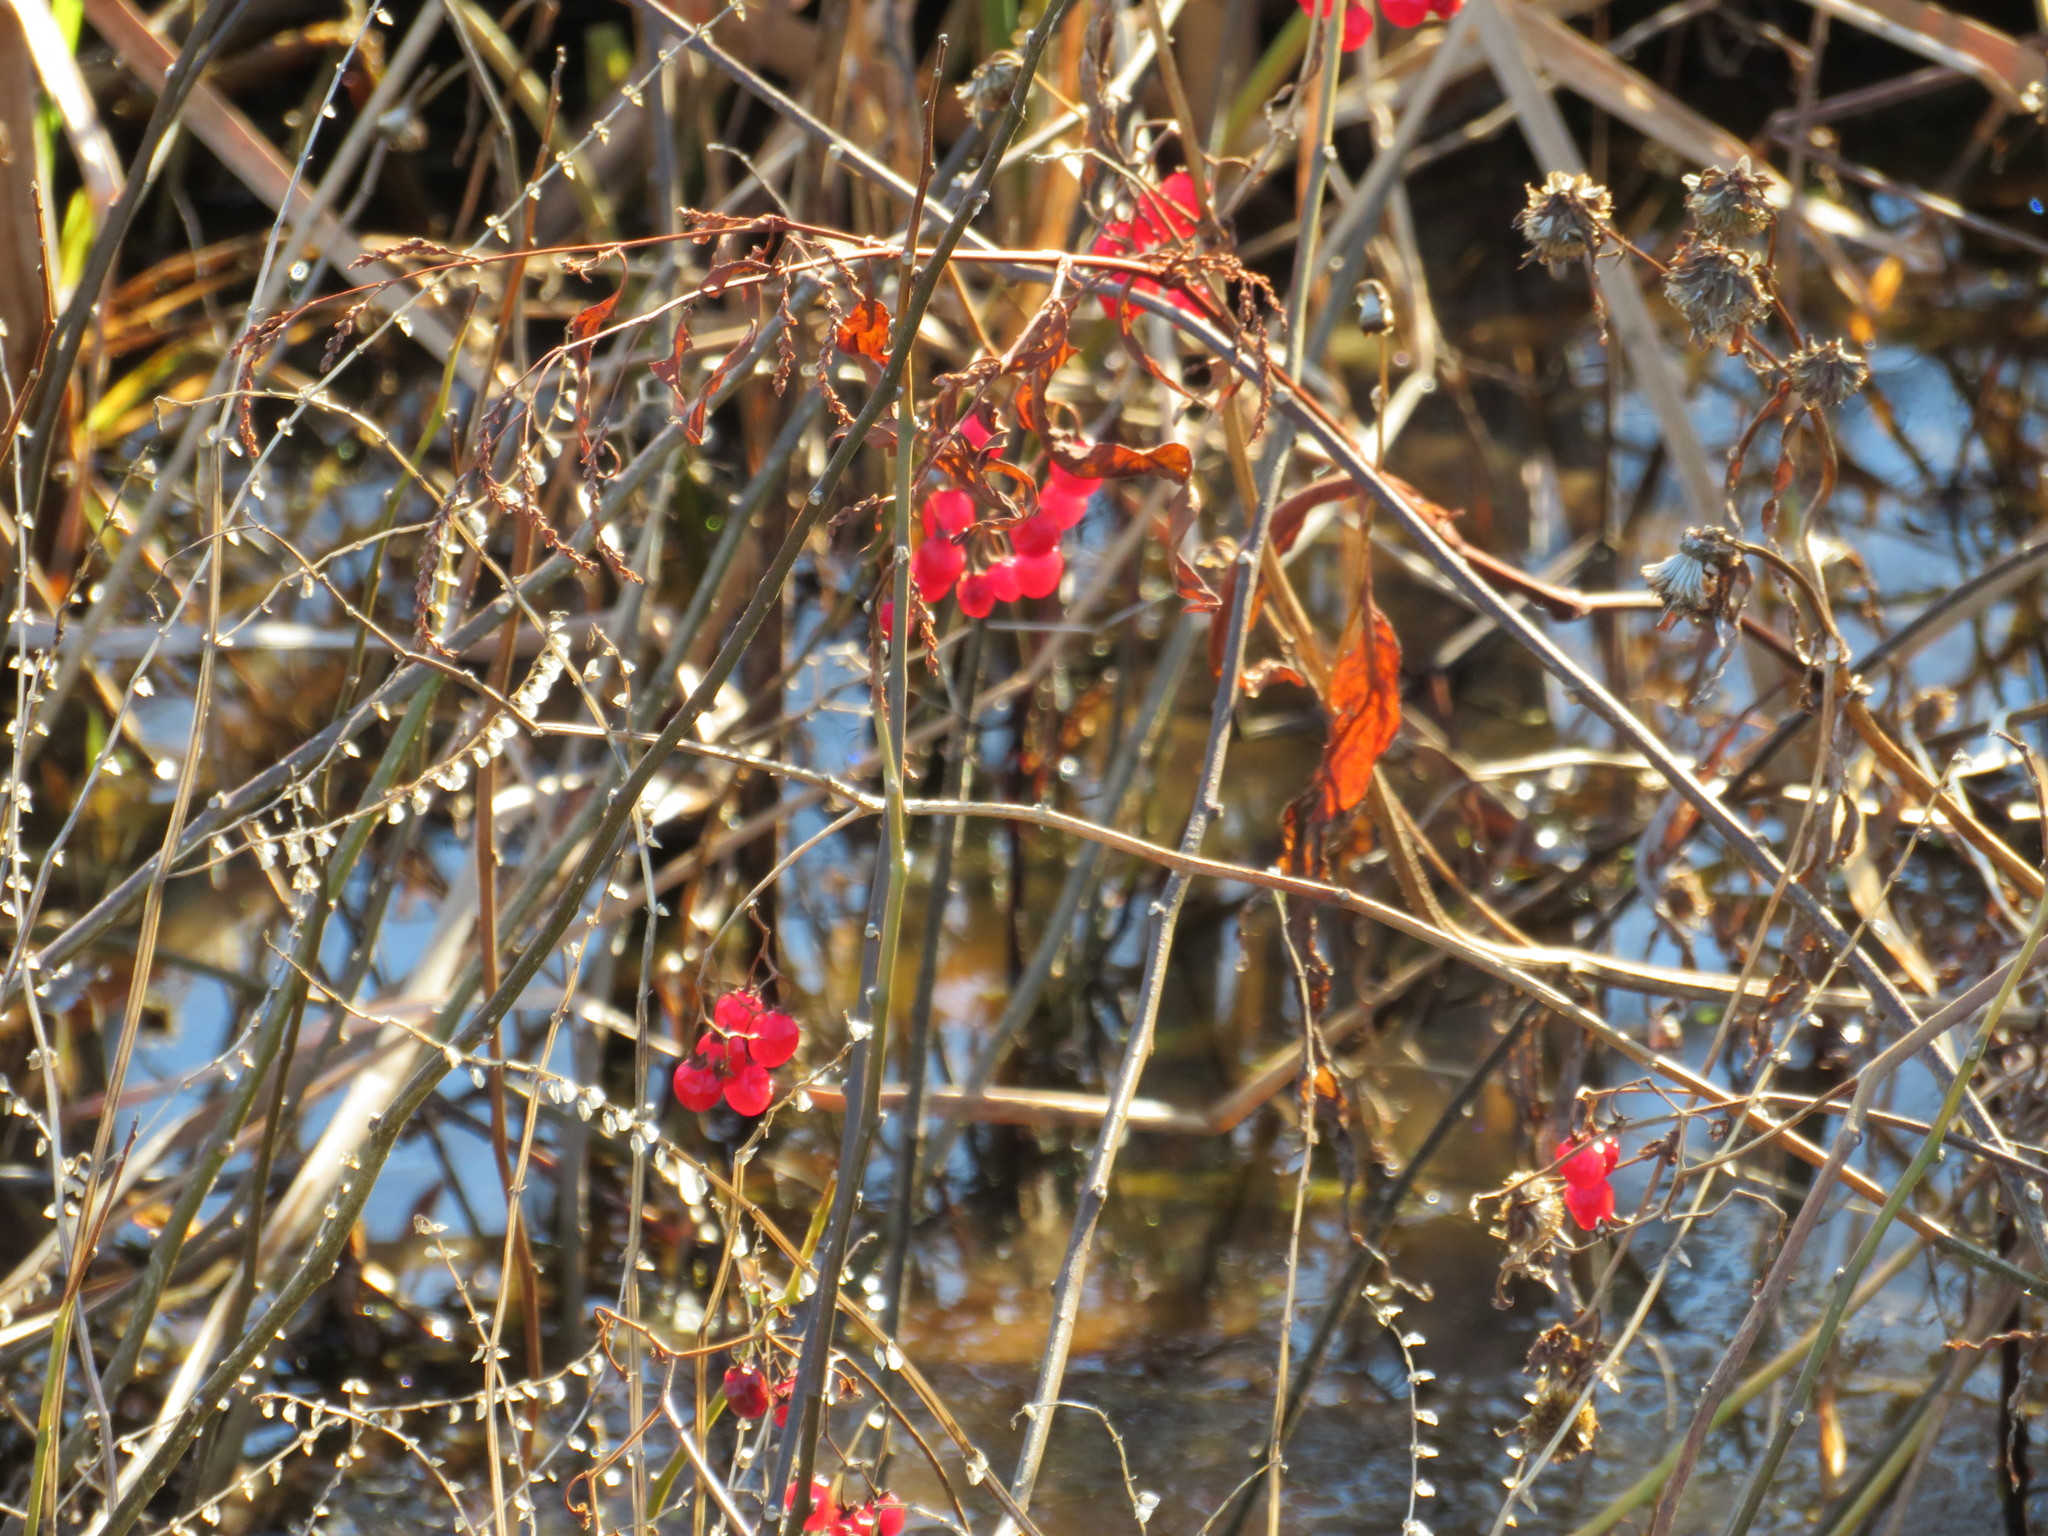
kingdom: Plantae
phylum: Tracheophyta
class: Magnoliopsida
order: Solanales
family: Solanaceae
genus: Solanum
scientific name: Solanum dulcamara
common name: Climbing nightshade
